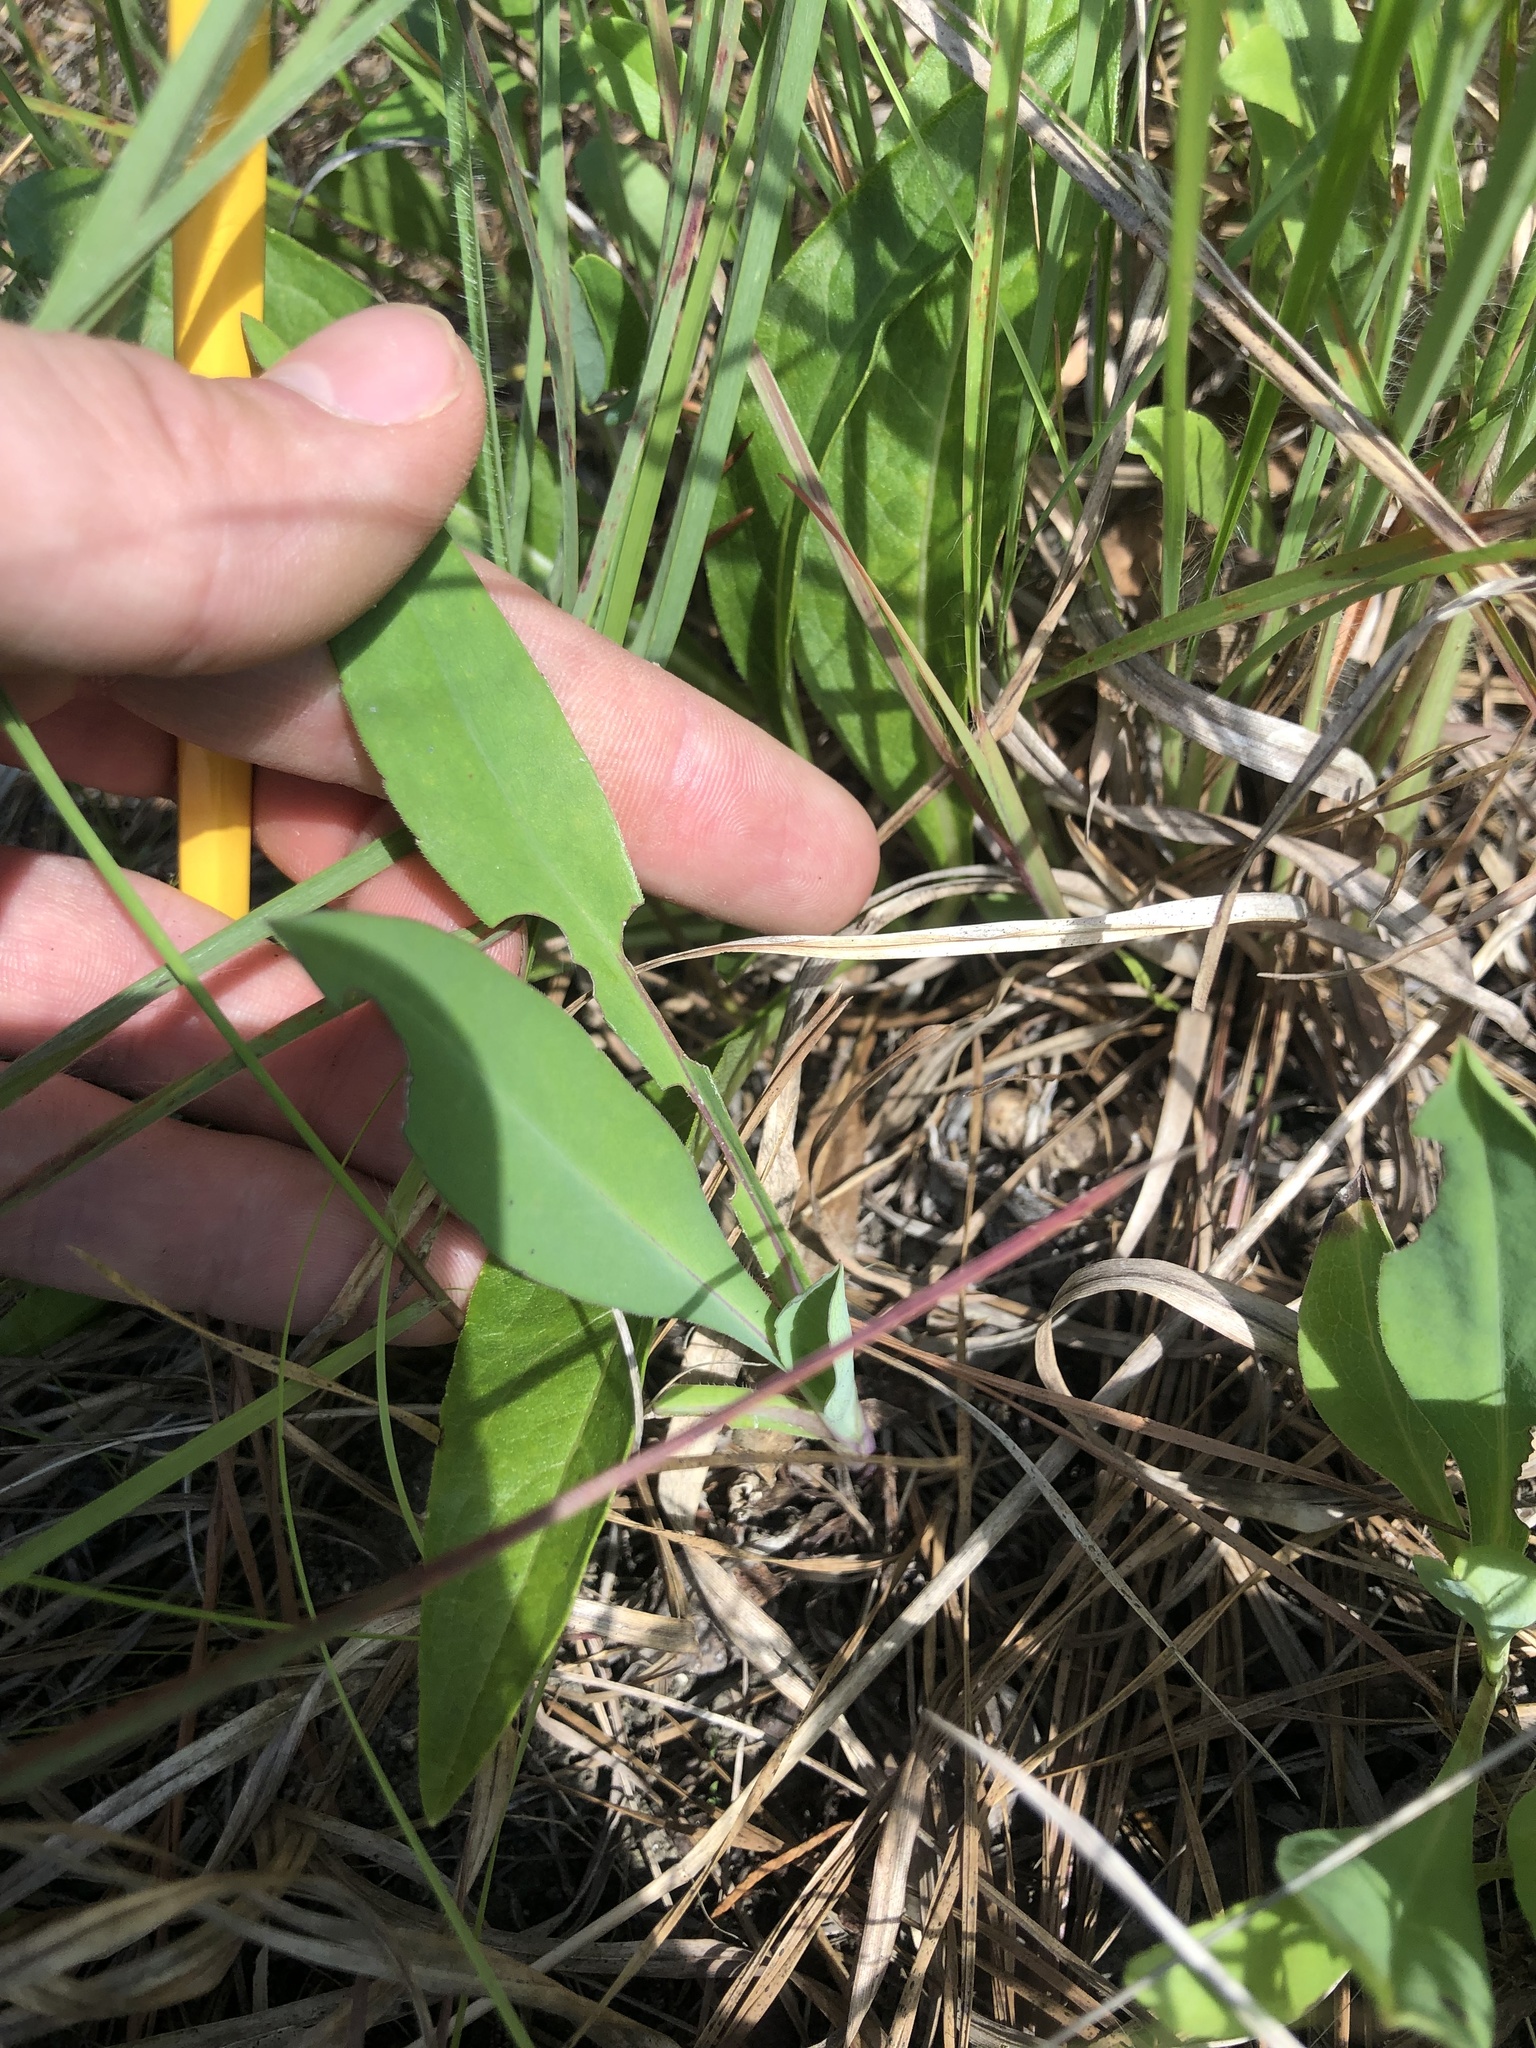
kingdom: Plantae
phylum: Tracheophyta
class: Magnoliopsida
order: Asterales
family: Asteraceae
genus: Symphyotrichum
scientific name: Symphyotrichum laeve
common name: Glaucous aster
